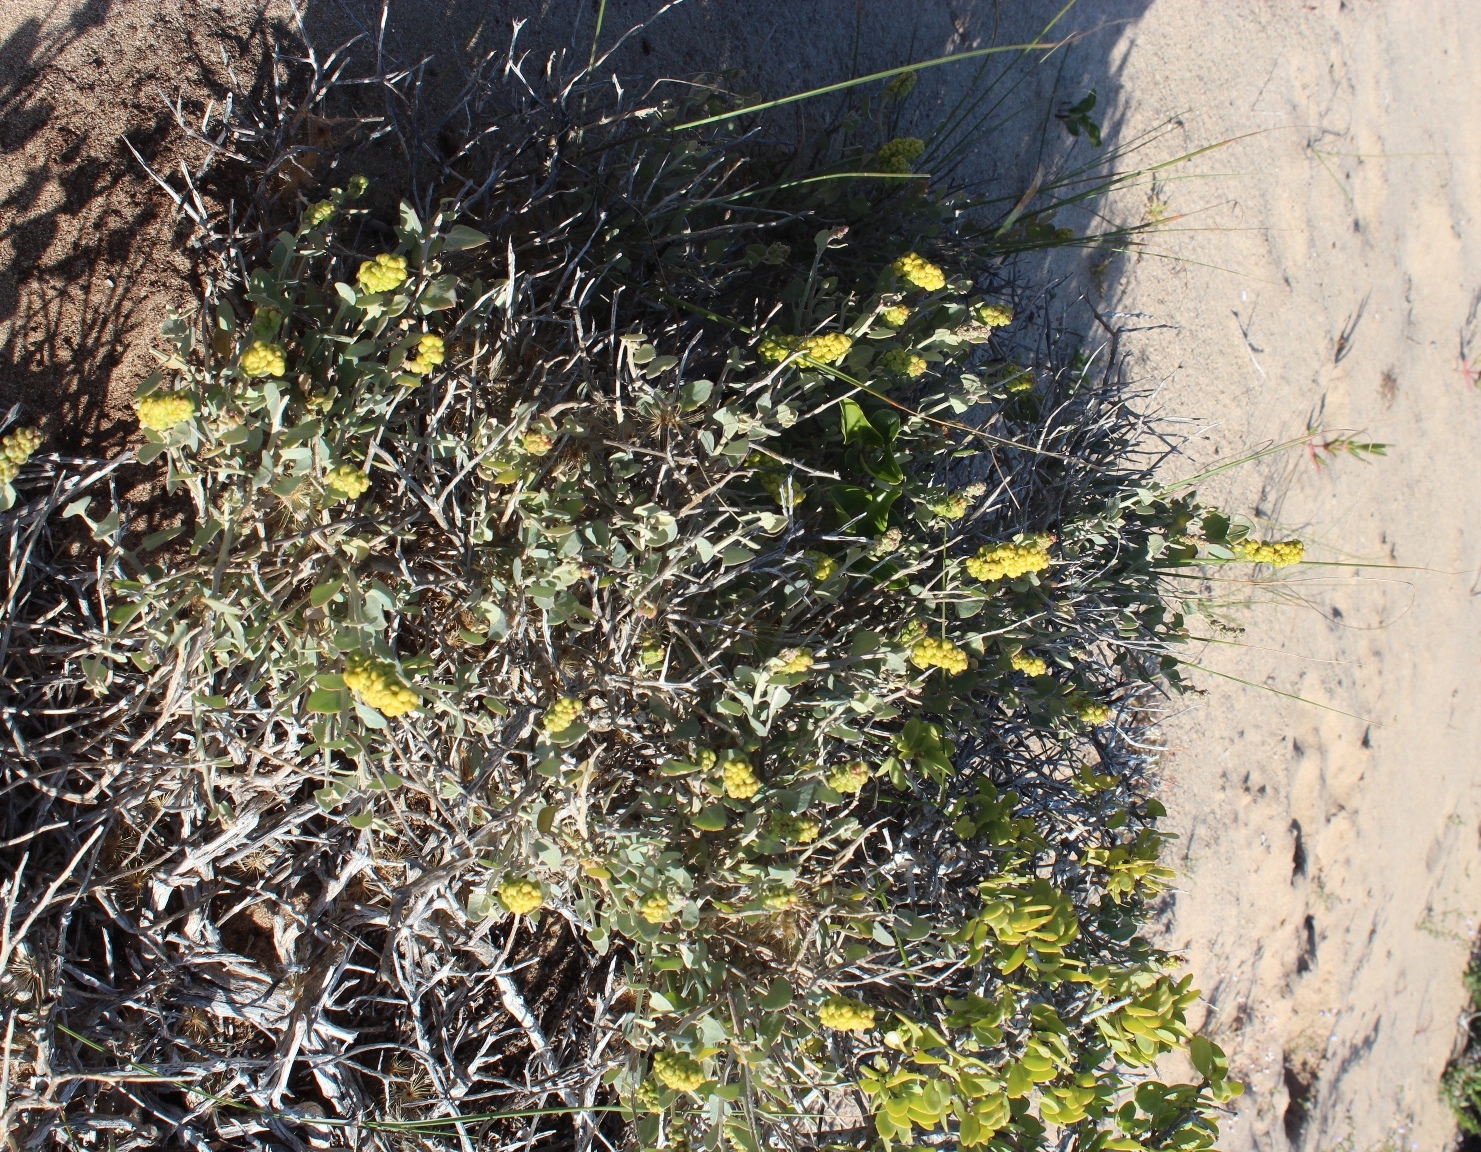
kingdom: Plantae
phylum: Tracheophyta
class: Magnoliopsida
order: Caryophyllales
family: Amaranthaceae
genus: Exomis
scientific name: Exomis albicans
